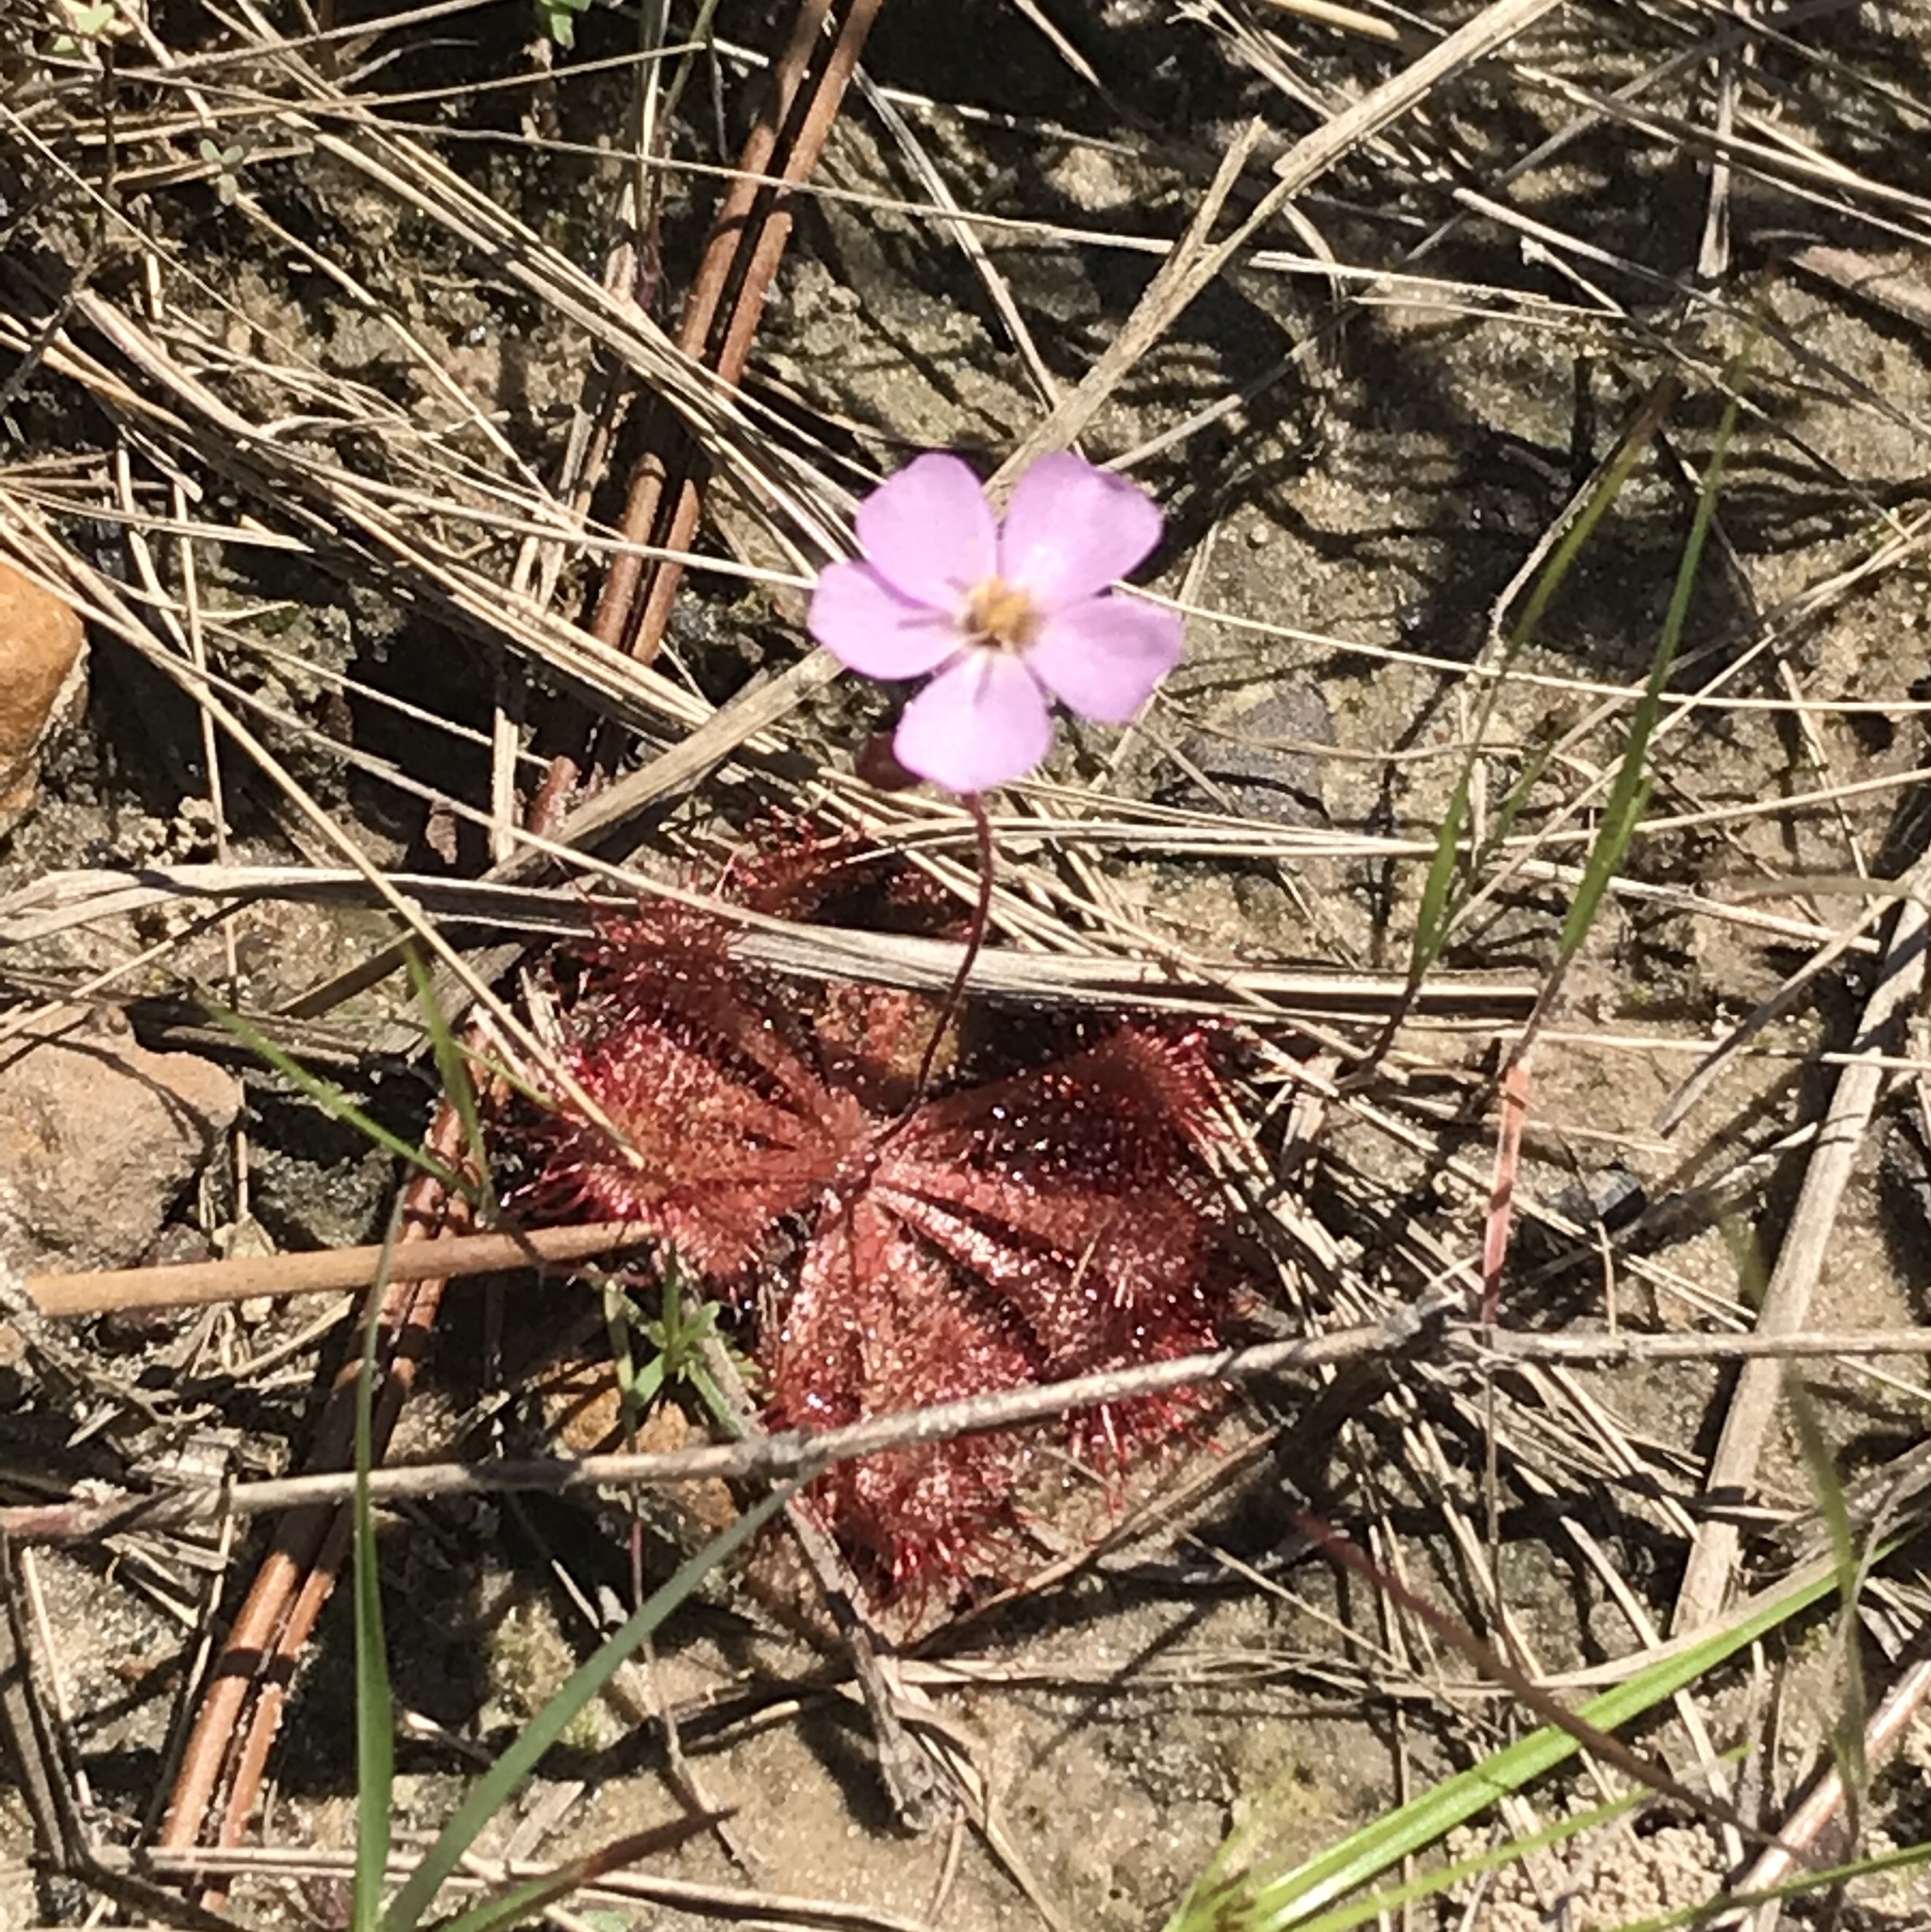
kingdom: Plantae
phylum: Tracheophyta
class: Magnoliopsida
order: Caryophyllales
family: Droseraceae
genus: Drosera
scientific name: Drosera brevifolia
